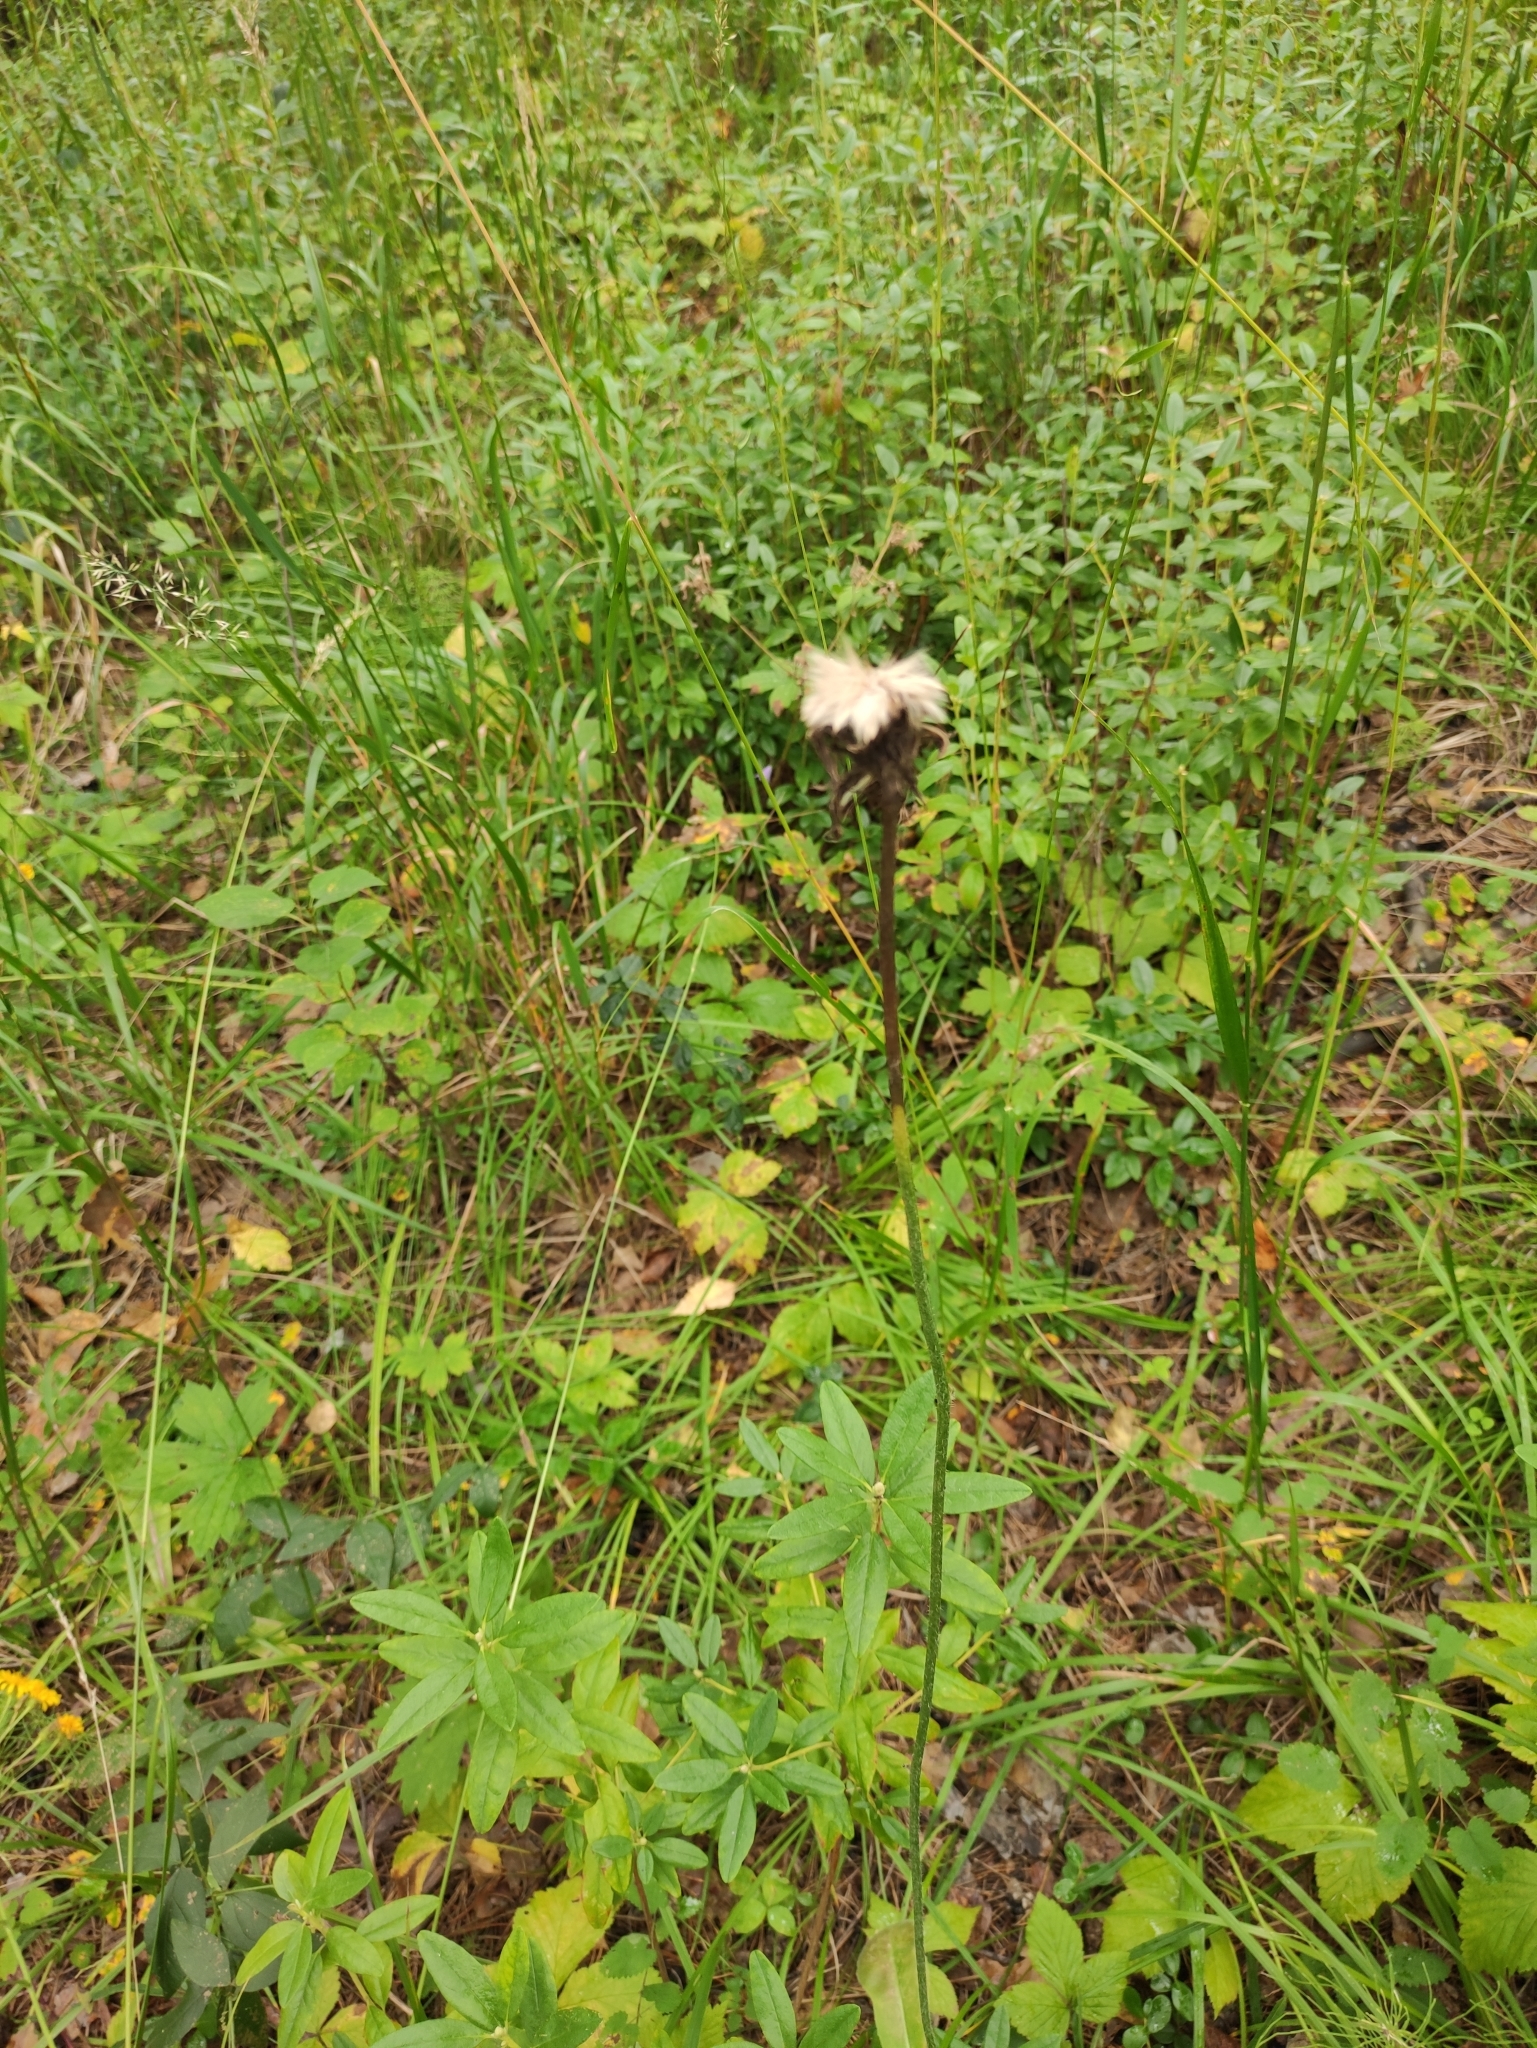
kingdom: Plantae
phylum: Tracheophyta
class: Magnoliopsida
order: Asterales
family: Asteraceae
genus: Trommsdorffia
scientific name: Trommsdorffia maculata
